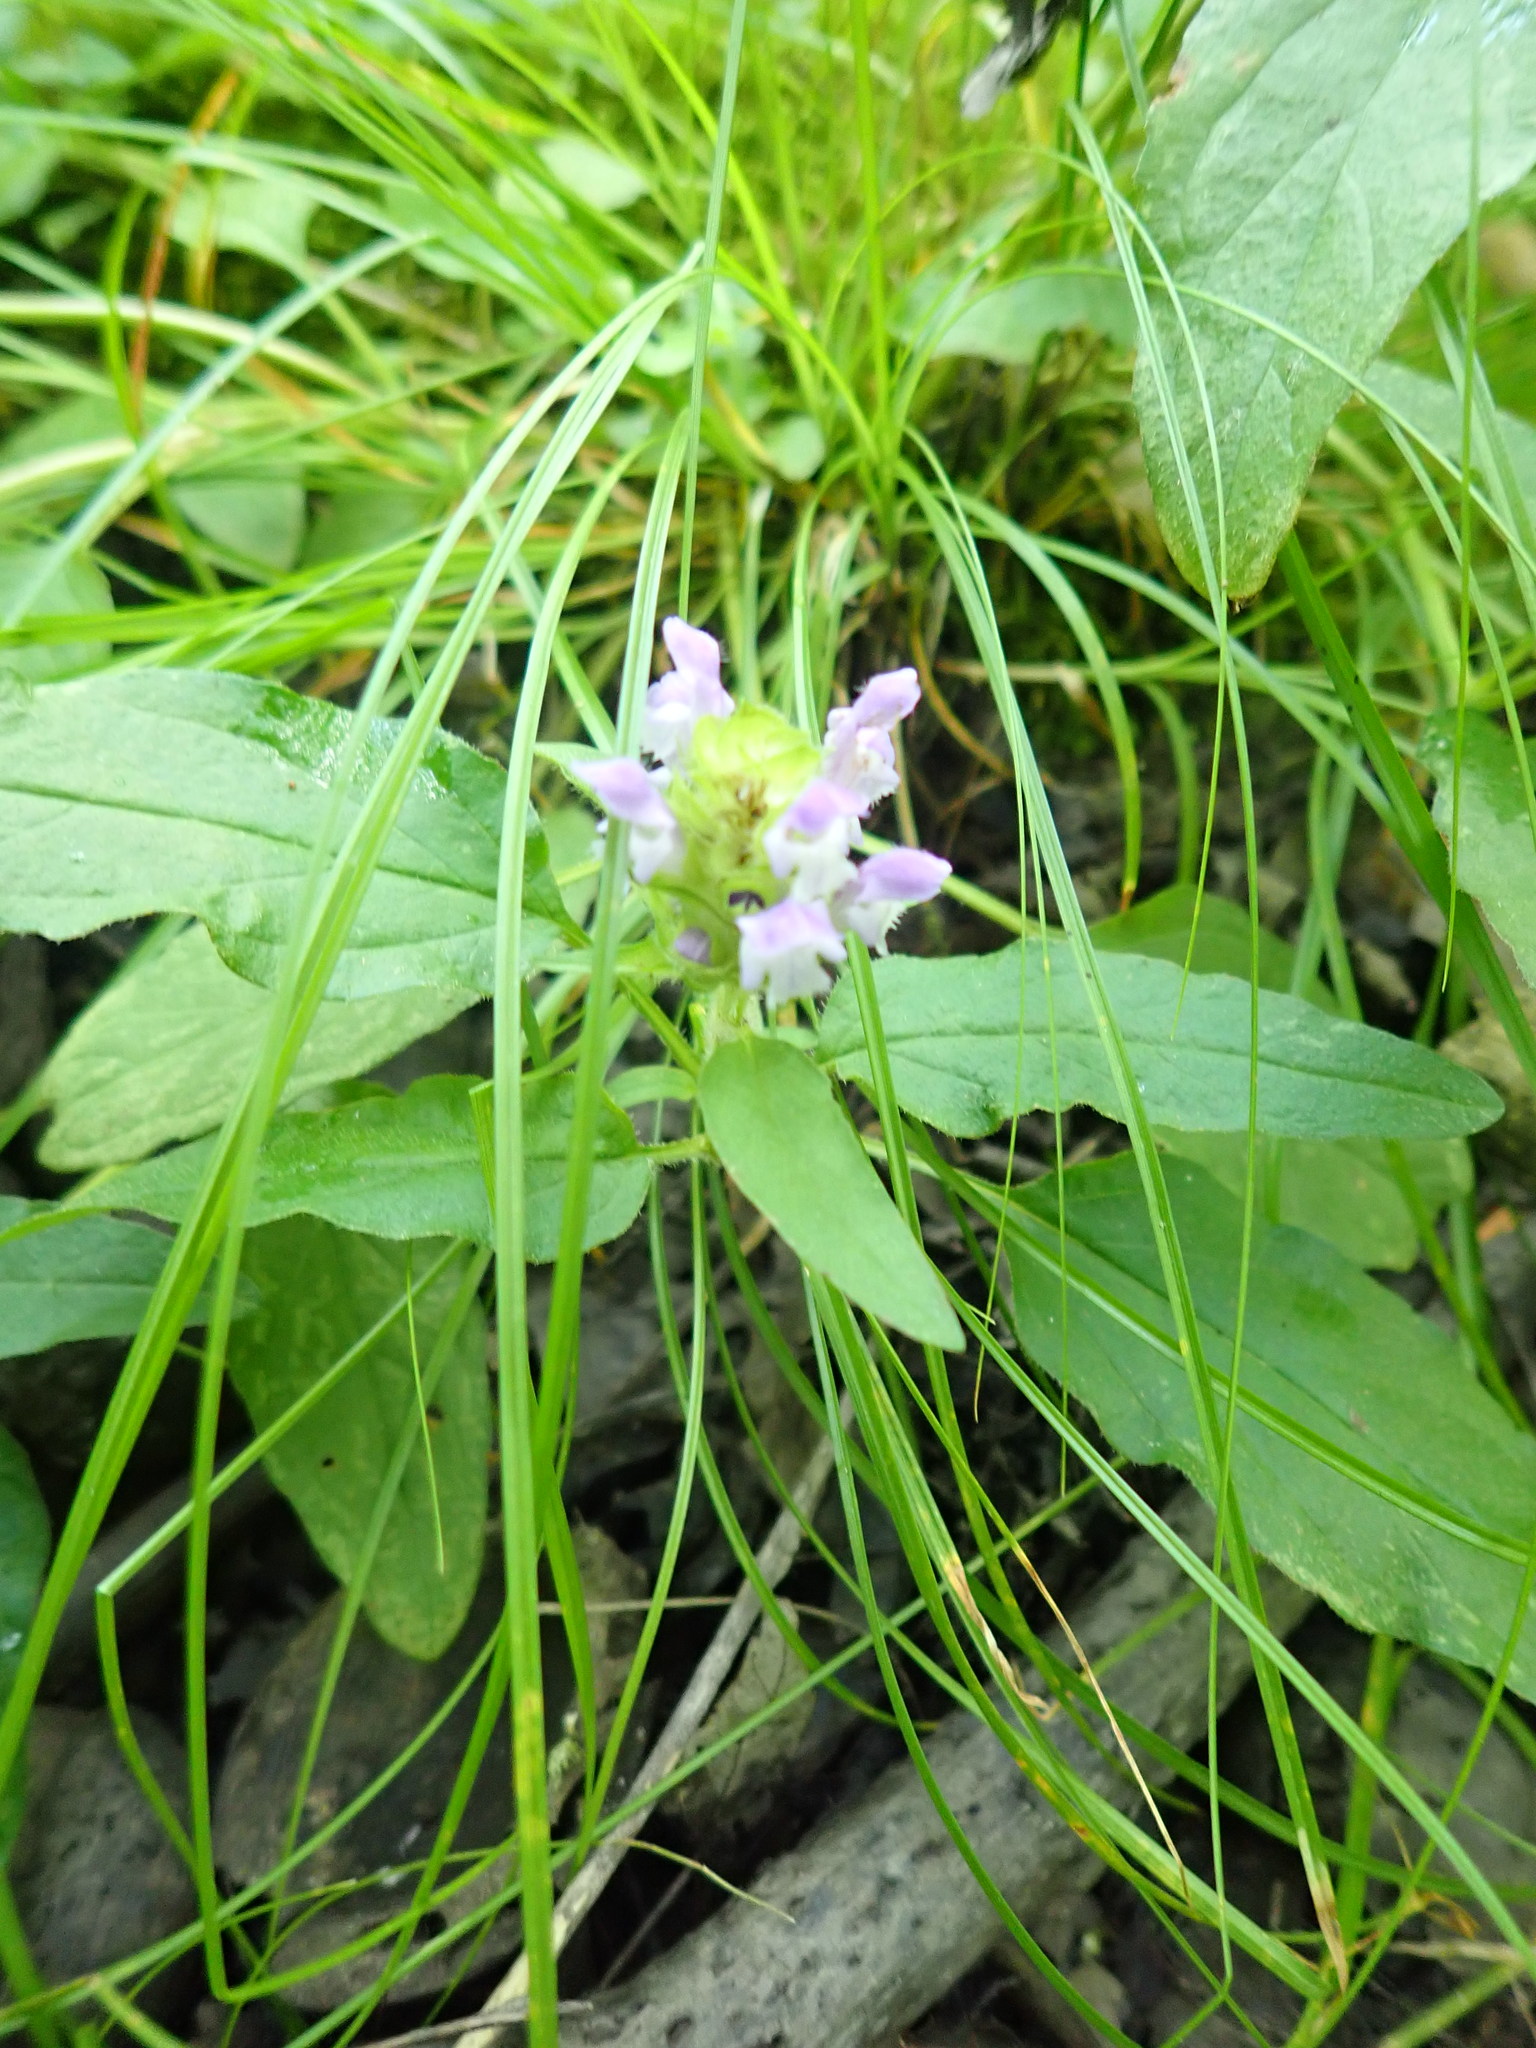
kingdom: Plantae
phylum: Tracheophyta
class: Magnoliopsida
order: Lamiales
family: Lamiaceae
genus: Prunella
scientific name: Prunella vulgaris
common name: Heal-all
